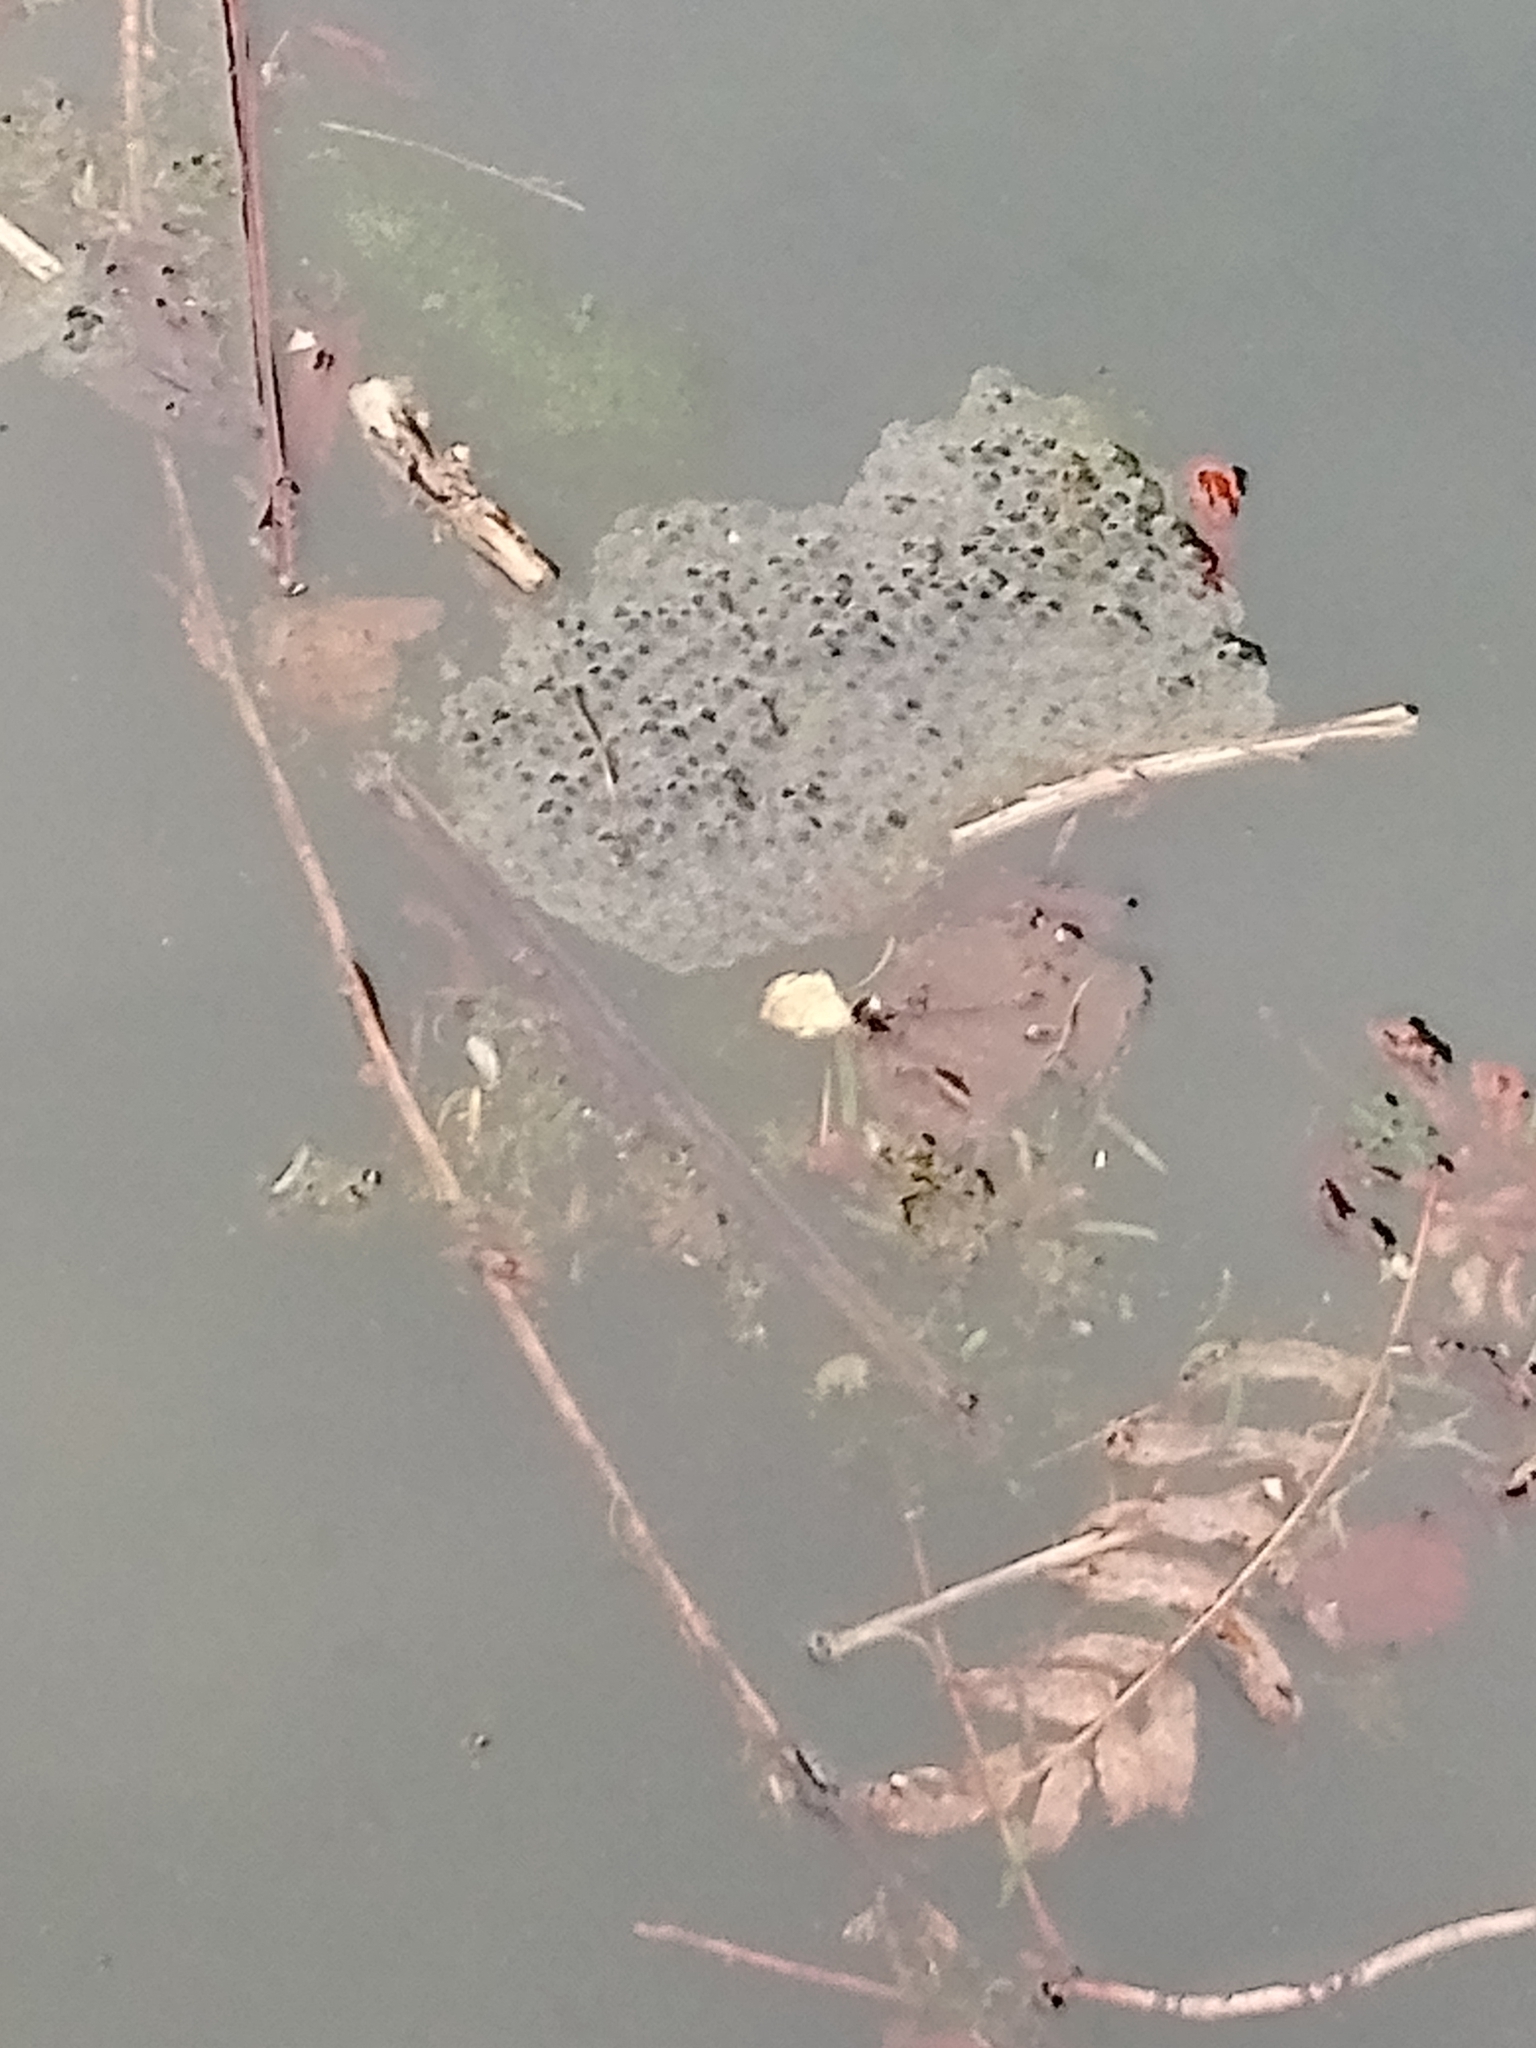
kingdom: Animalia
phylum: Chordata
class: Amphibia
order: Anura
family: Ranidae
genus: Rana
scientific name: Rana temporaria
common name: Common frog
